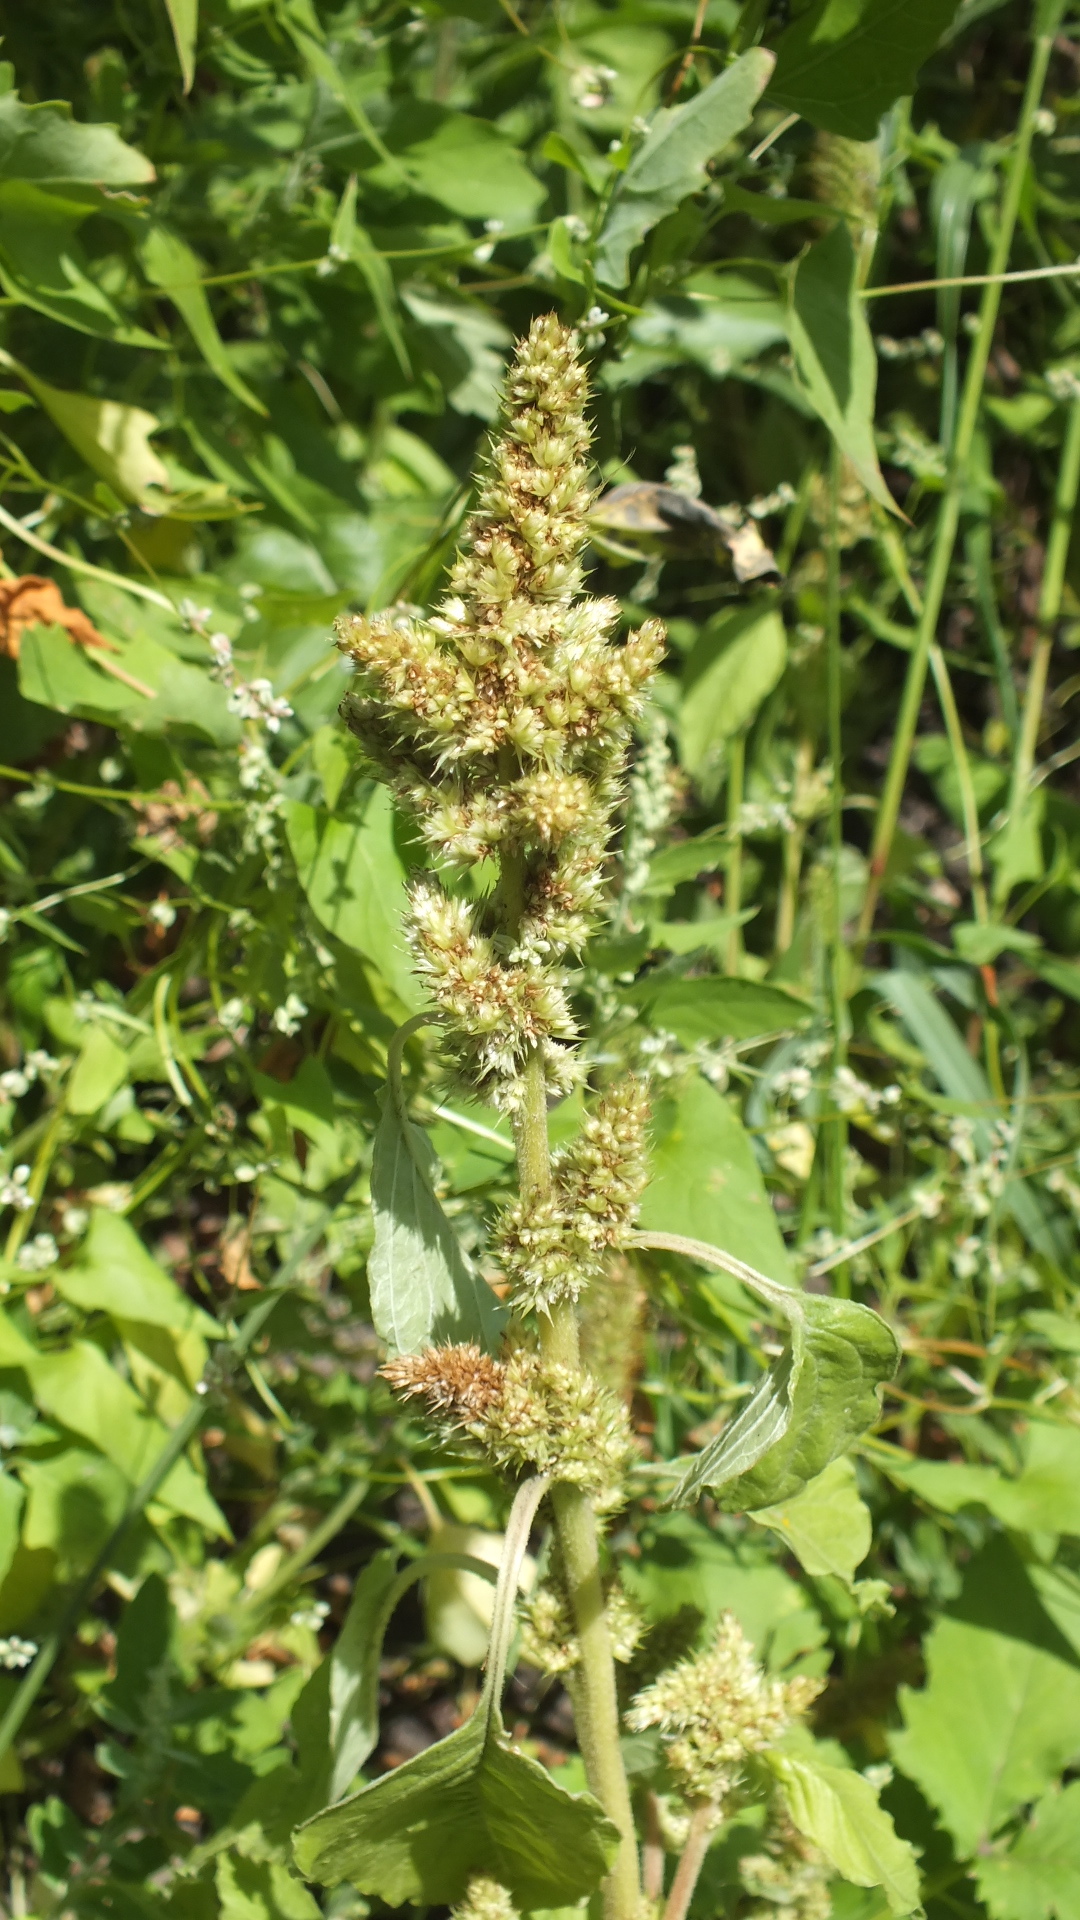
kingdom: Plantae
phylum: Tracheophyta
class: Magnoliopsida
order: Caryophyllales
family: Amaranthaceae
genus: Amaranthus
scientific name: Amaranthus retroflexus
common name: Redroot amaranth
